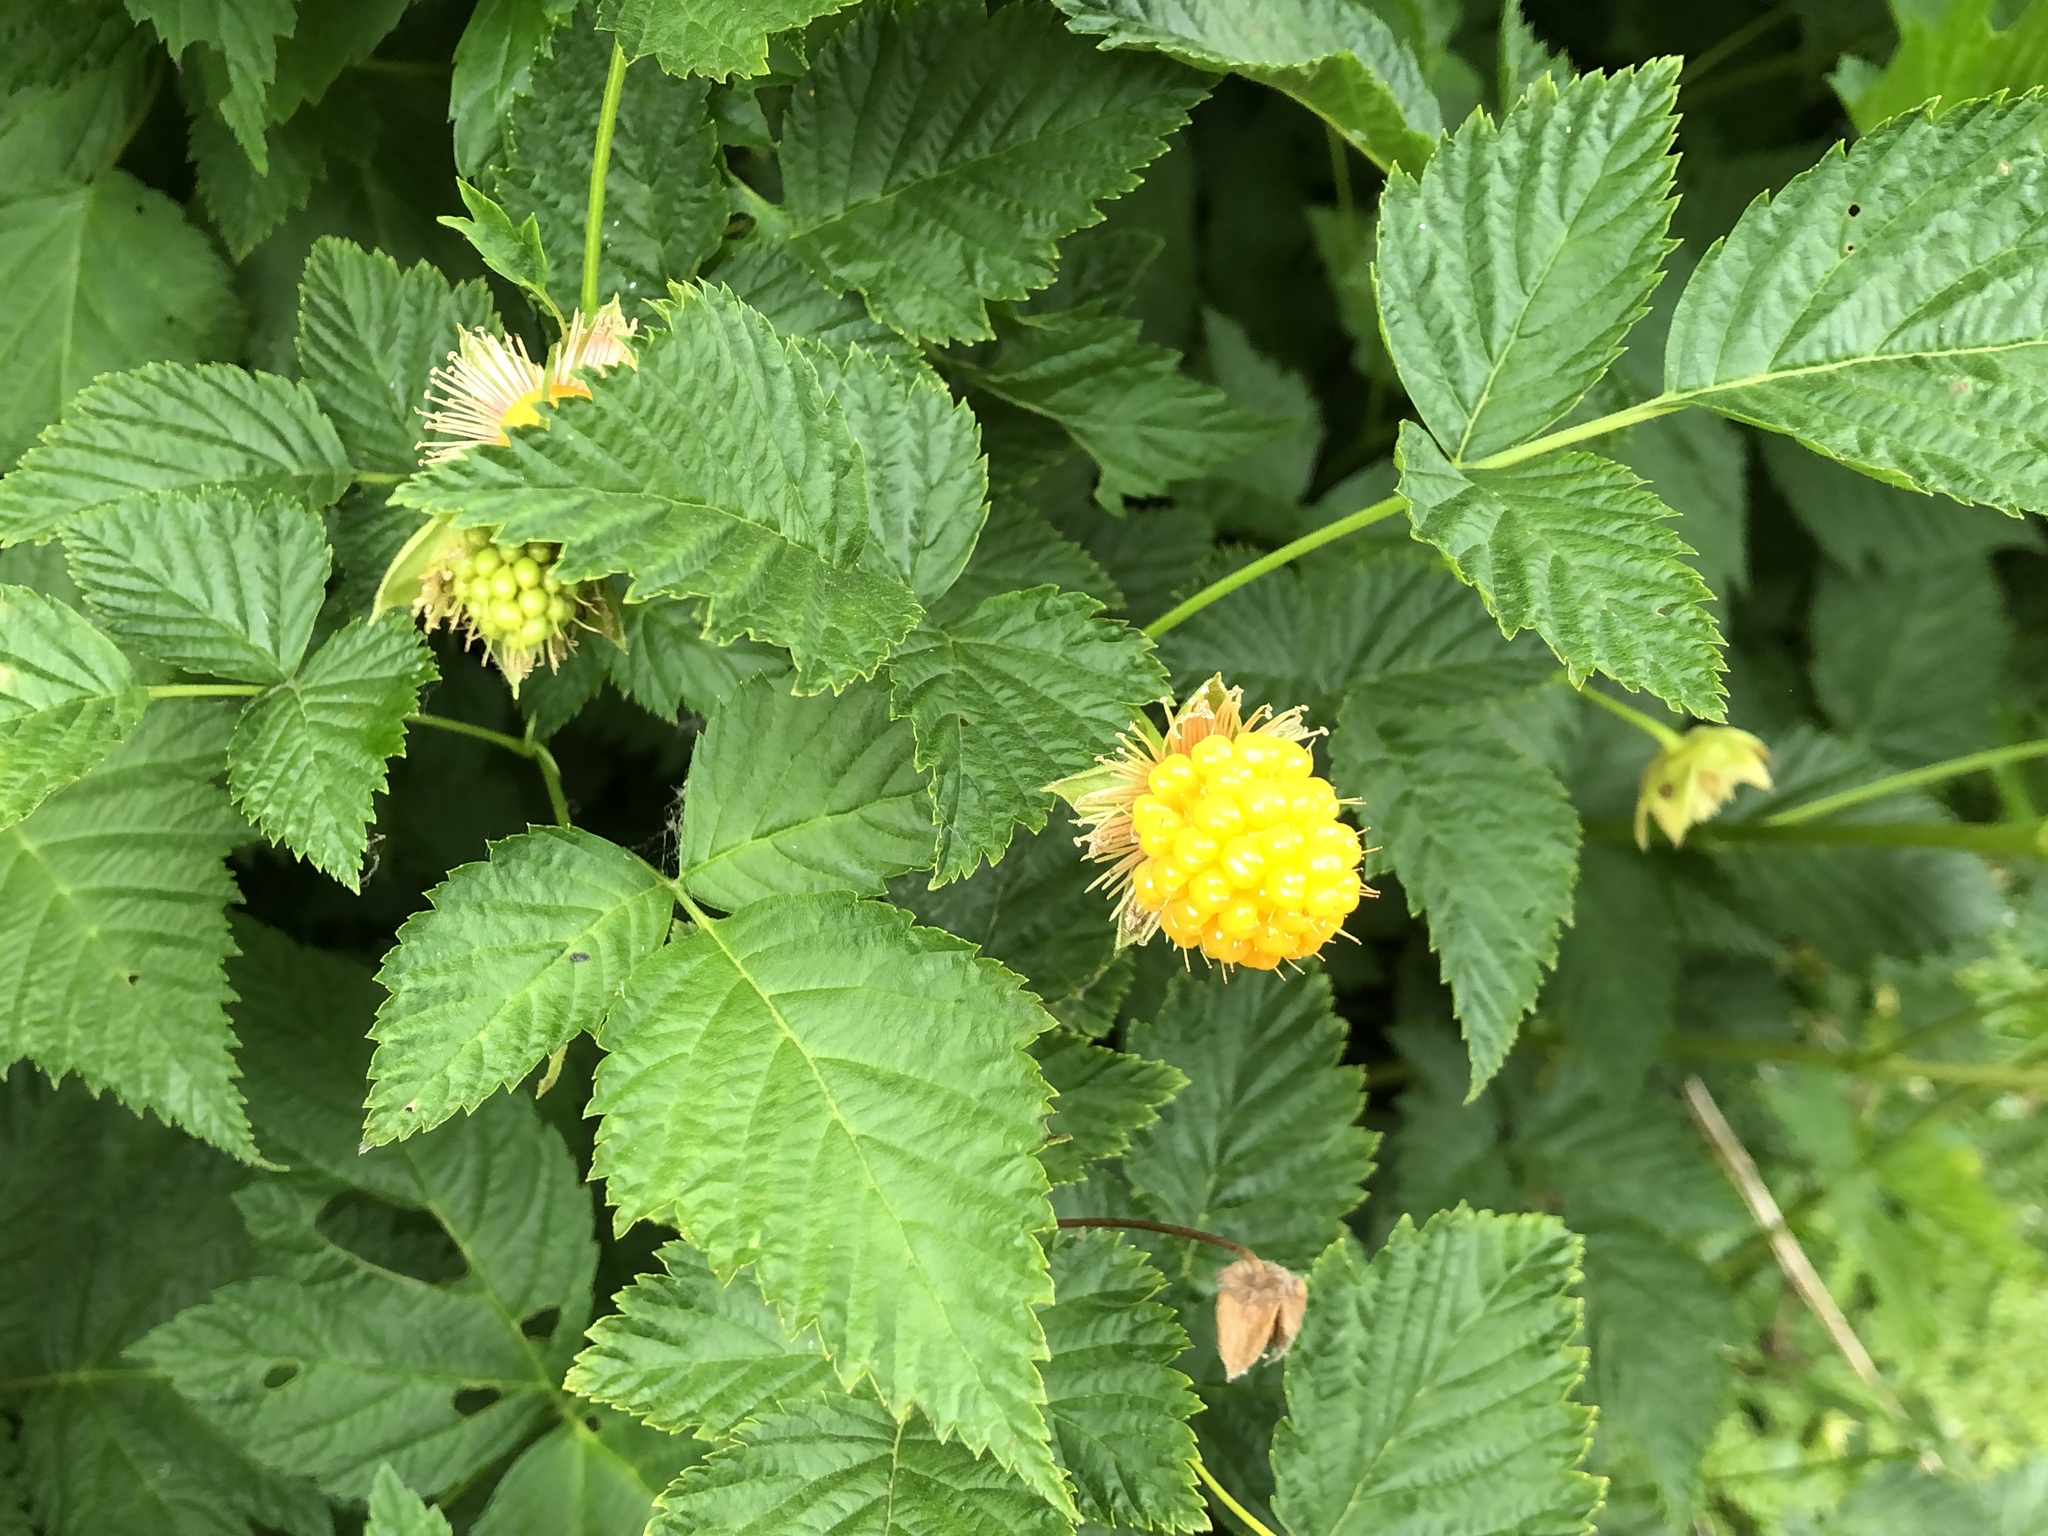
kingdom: Plantae
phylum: Tracheophyta
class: Magnoliopsida
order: Rosales
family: Rosaceae
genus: Rubus
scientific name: Rubus spectabilis
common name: Salmonberry
